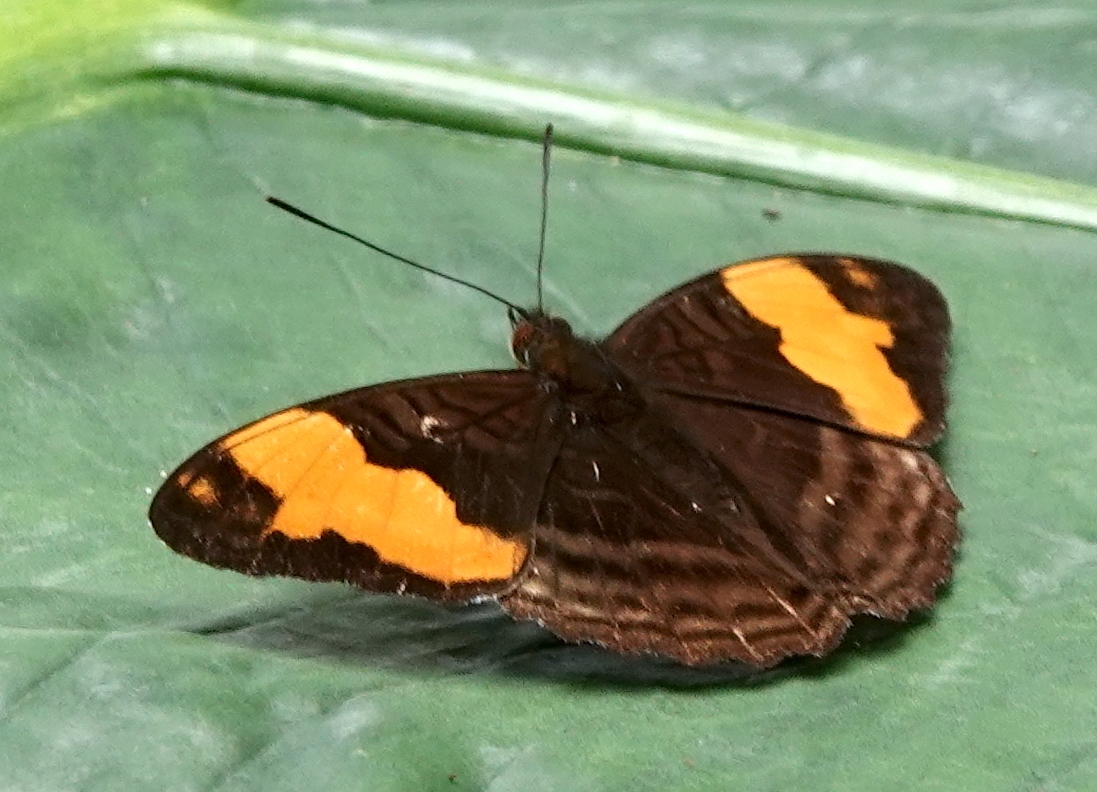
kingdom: Animalia
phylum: Arthropoda
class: Insecta
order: Lepidoptera
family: Nymphalidae
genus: Limenitis
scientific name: Limenitis saundersii
